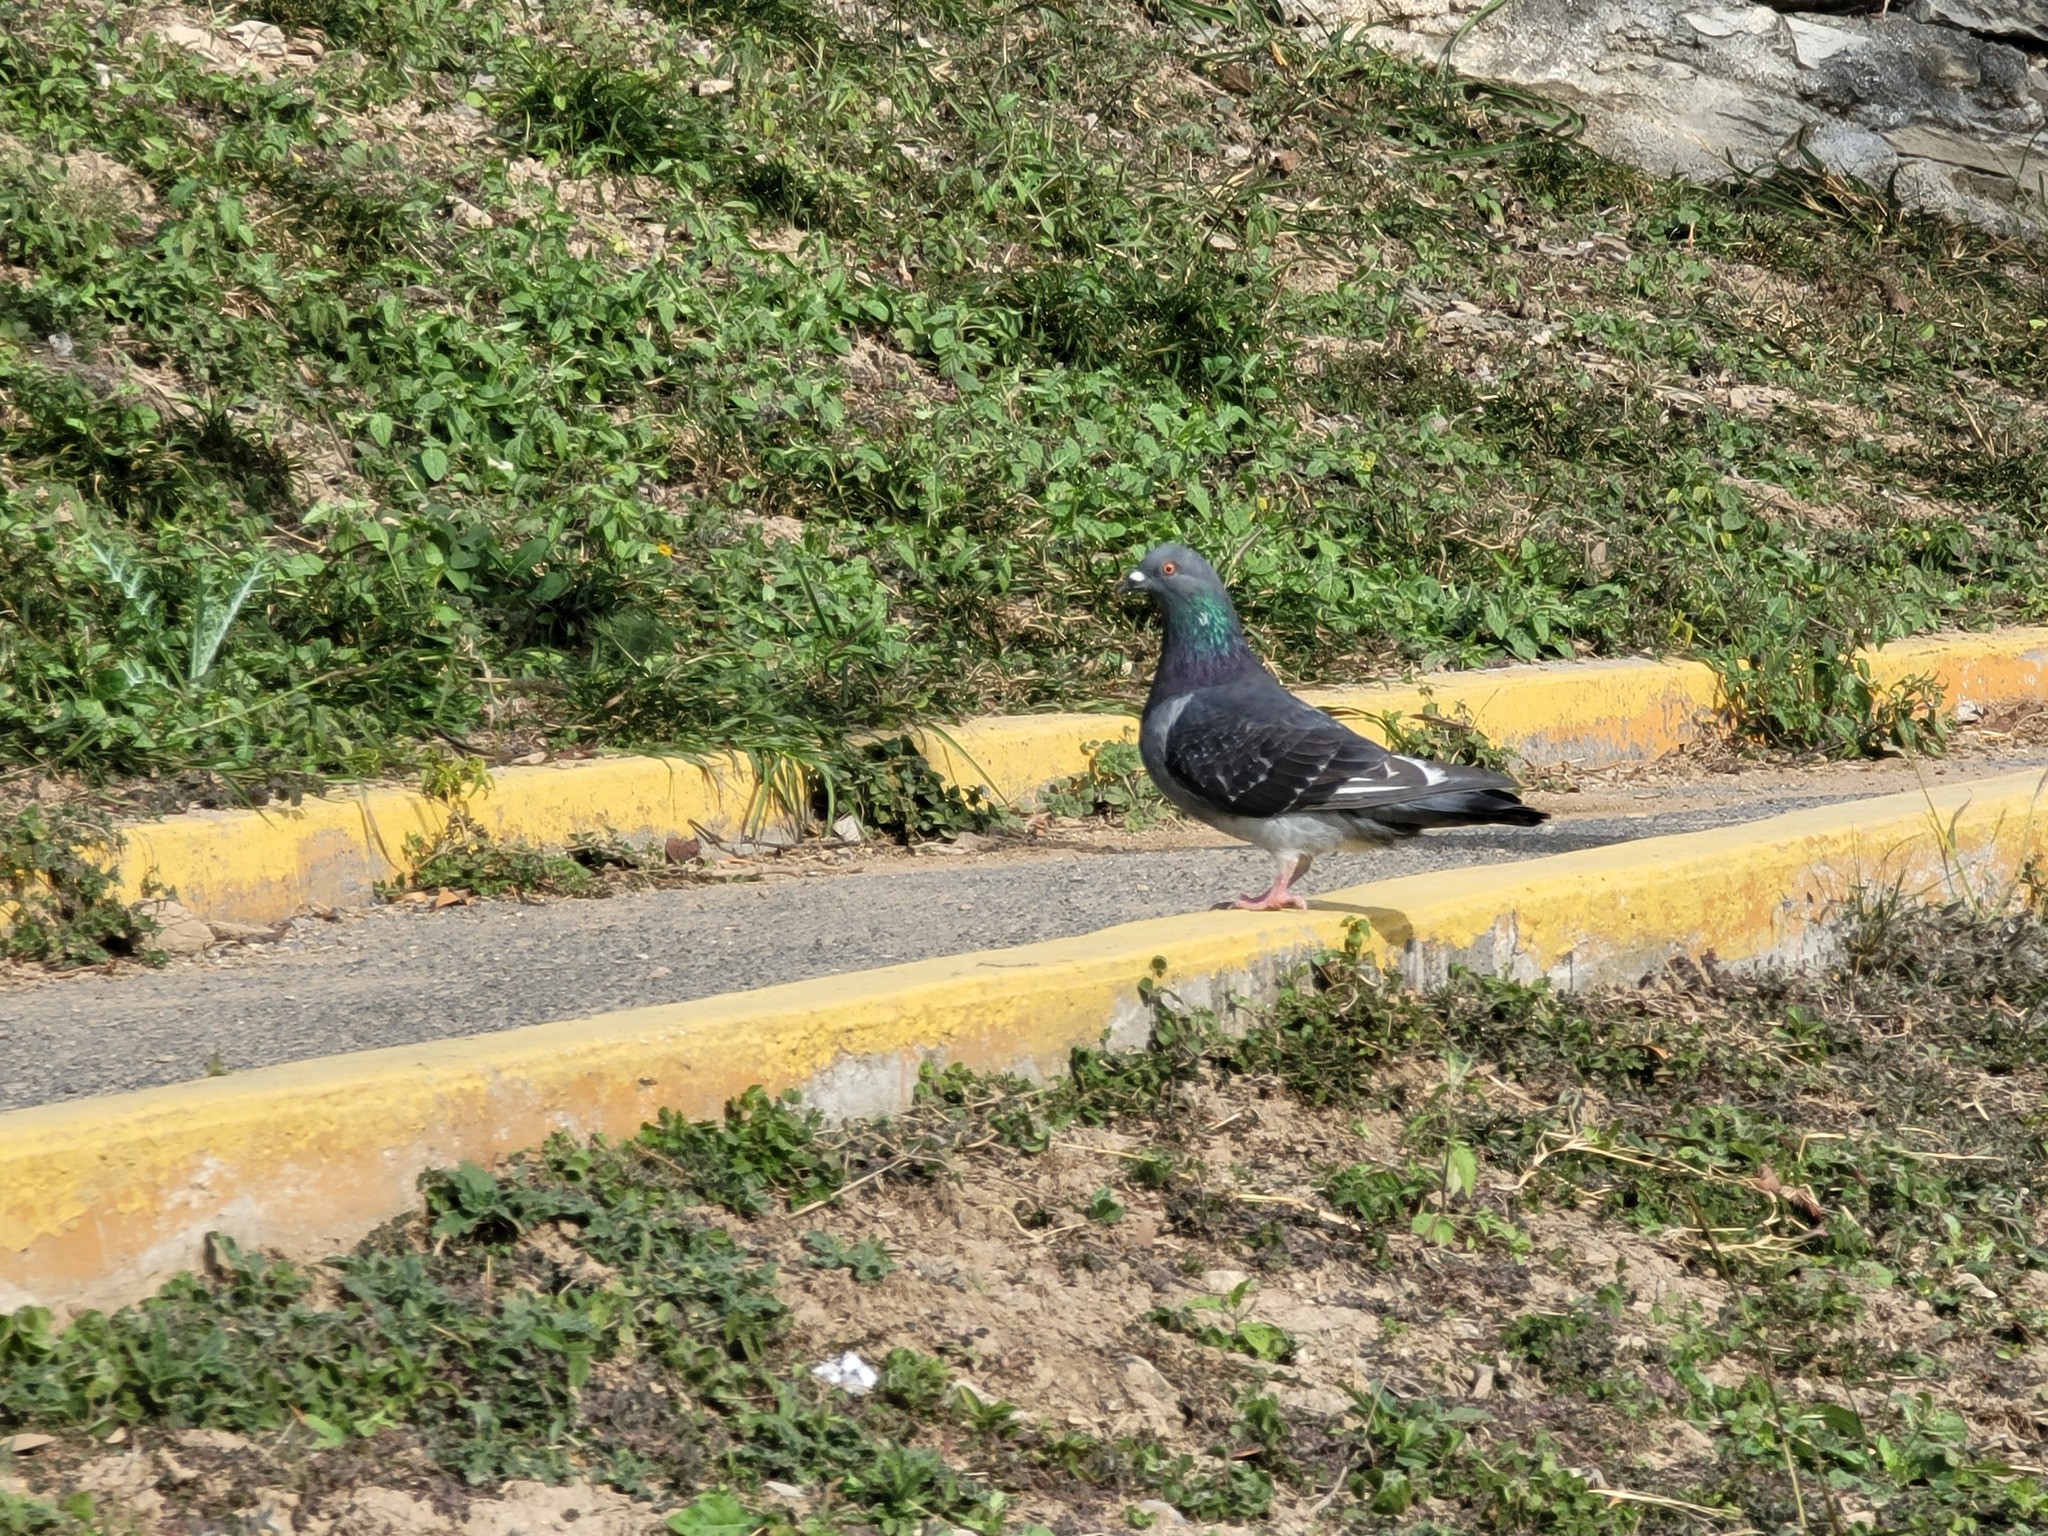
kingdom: Animalia
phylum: Chordata
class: Aves
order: Columbiformes
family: Columbidae
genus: Columba
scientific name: Columba livia
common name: Rock pigeon
